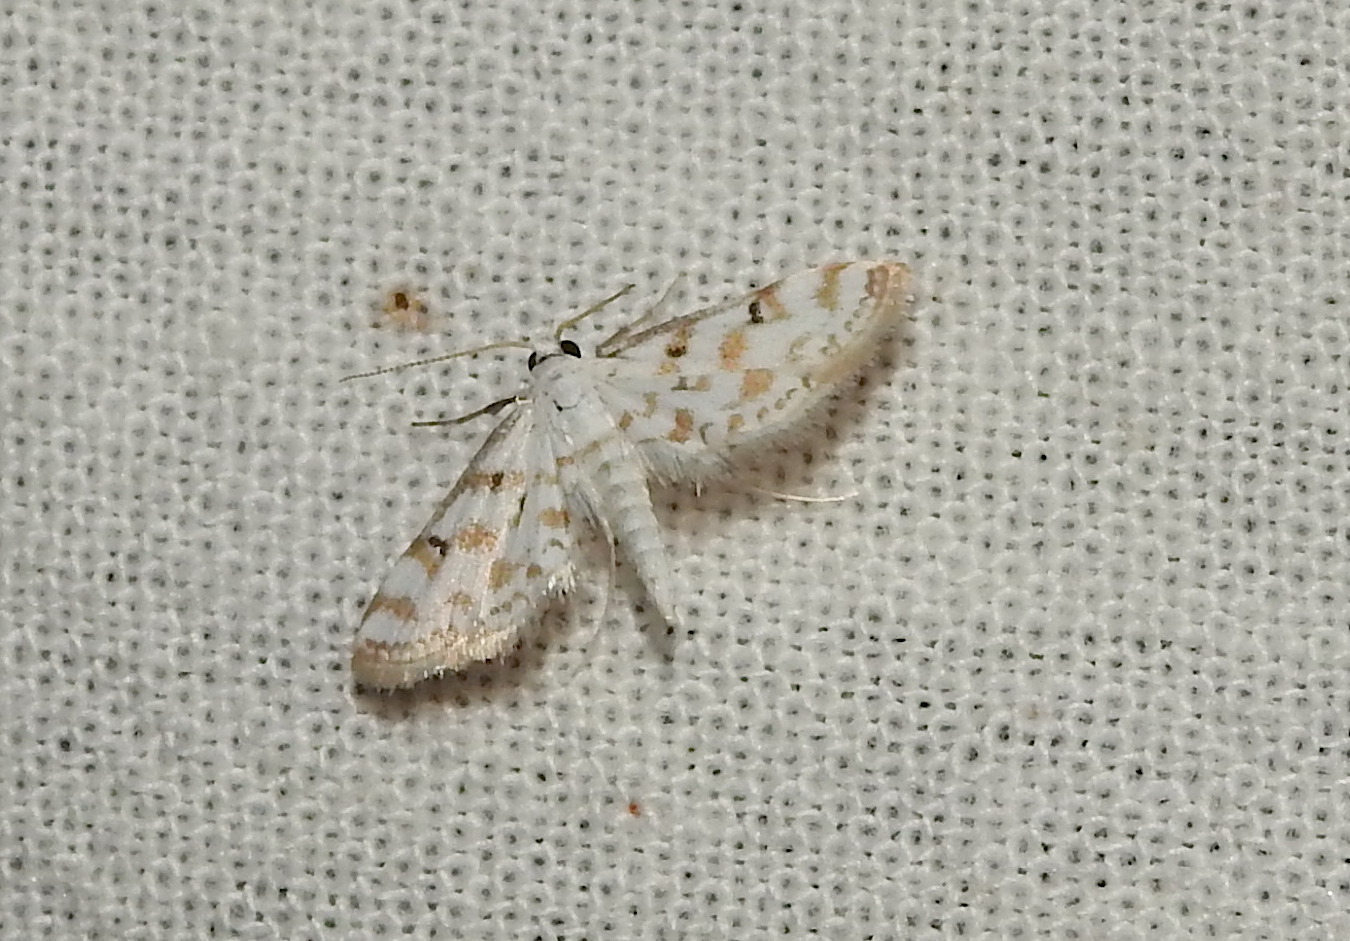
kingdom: Animalia
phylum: Arthropoda
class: Insecta
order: Lepidoptera
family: Crambidae
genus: Parapoynx
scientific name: Parapoynx stagnalis
